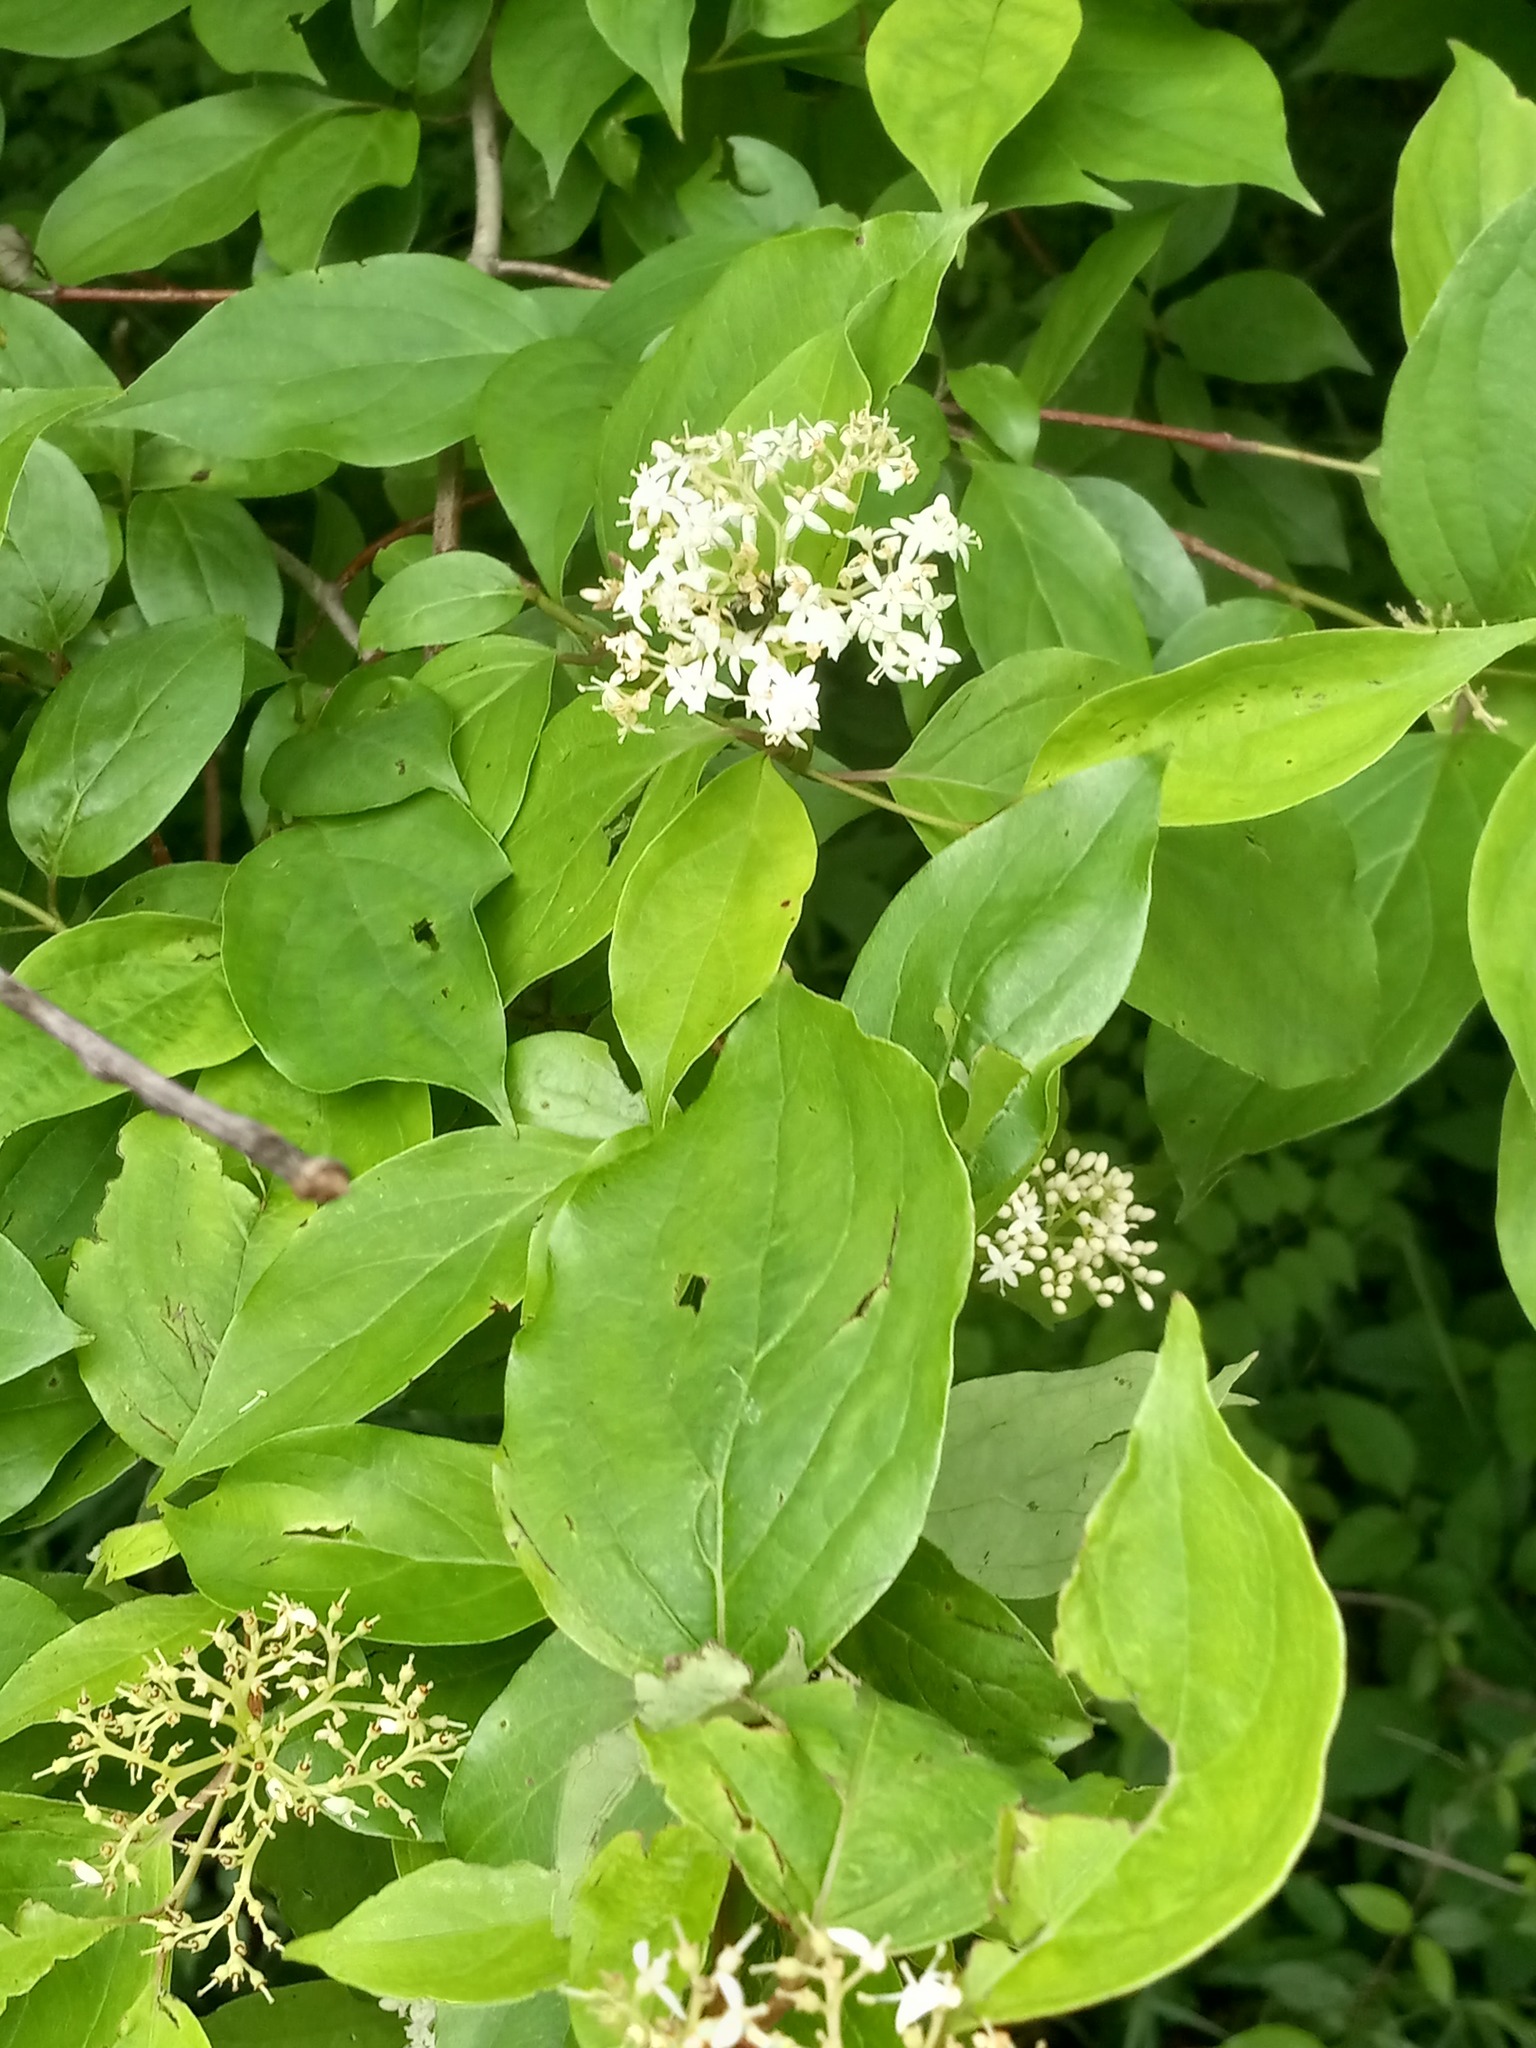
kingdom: Plantae
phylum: Tracheophyta
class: Magnoliopsida
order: Cornales
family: Cornaceae
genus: Cornus
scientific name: Cornus foemina
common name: Swamp dogwood
